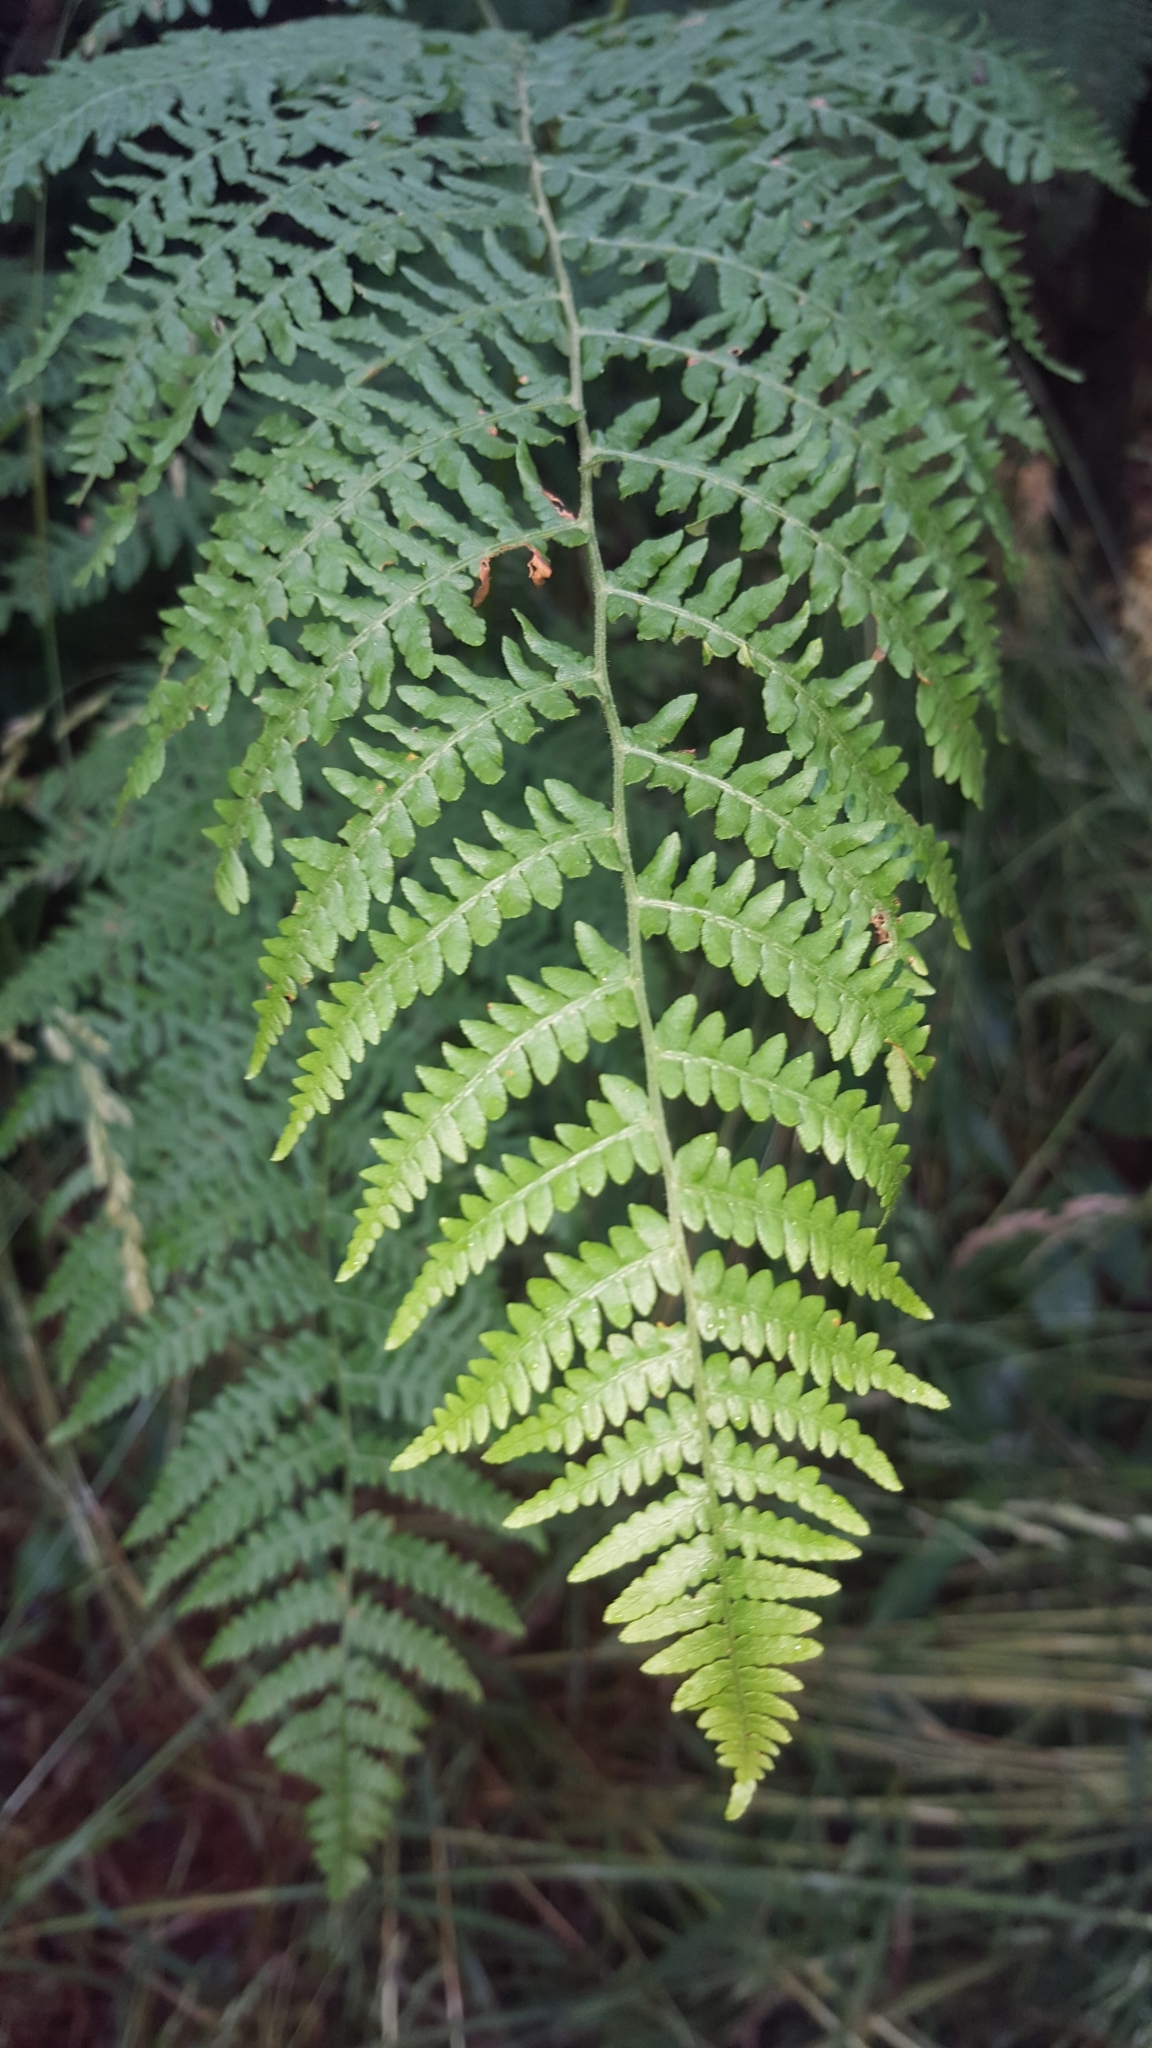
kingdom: Plantae
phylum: Tracheophyta
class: Polypodiopsida
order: Polypodiales
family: Dennstaedtiaceae
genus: Pteridium
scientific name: Pteridium aquilinum
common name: Bracken
